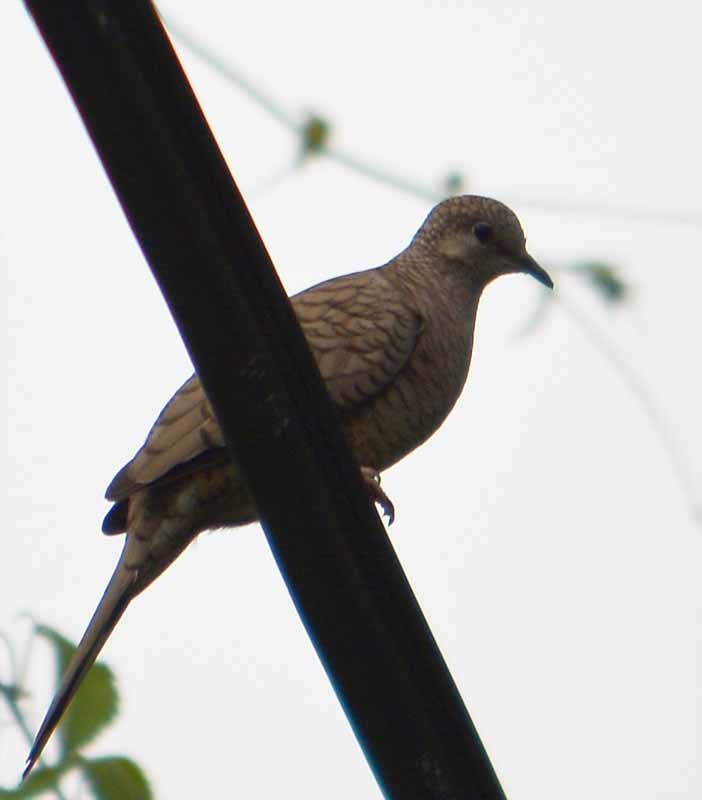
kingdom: Animalia
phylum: Chordata
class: Aves
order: Columbiformes
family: Columbidae
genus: Columbina
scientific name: Columbina inca
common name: Inca dove
